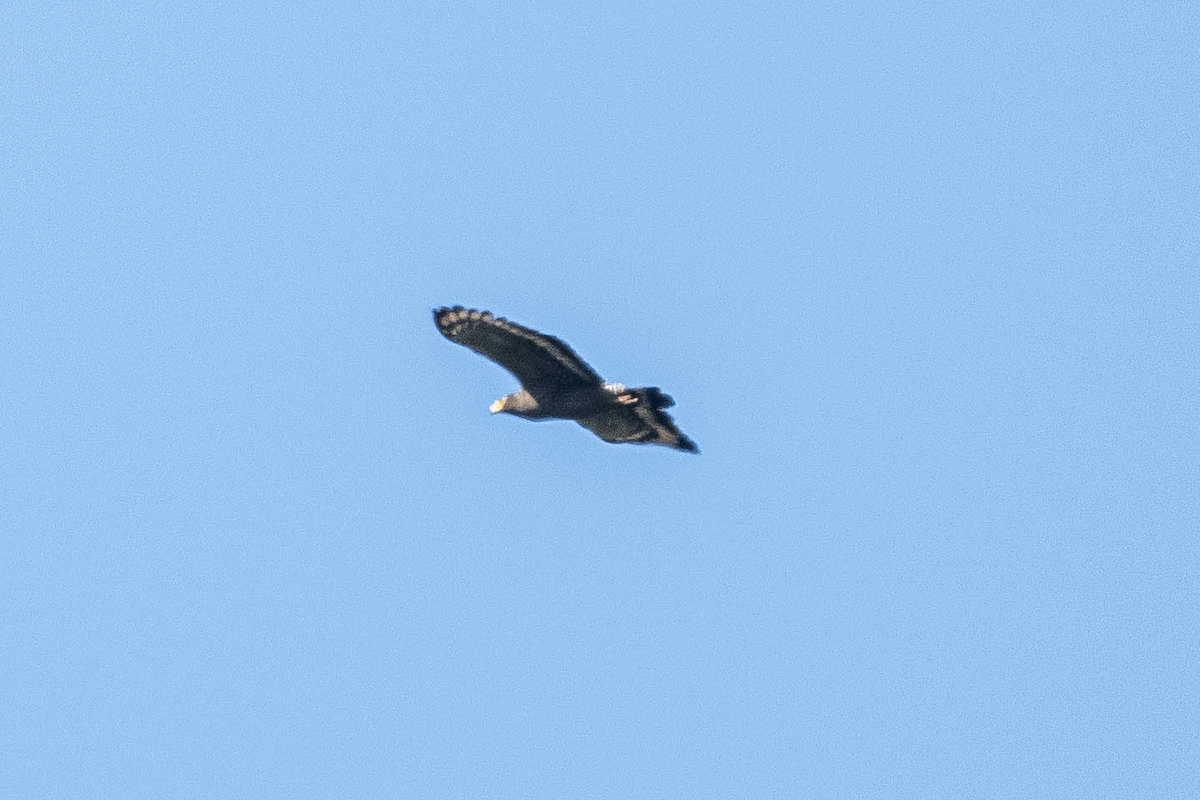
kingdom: Animalia
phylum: Chordata
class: Aves
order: Accipitriformes
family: Accipitridae
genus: Spilornis
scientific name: Spilornis cheela
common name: Crested serpent eagle
